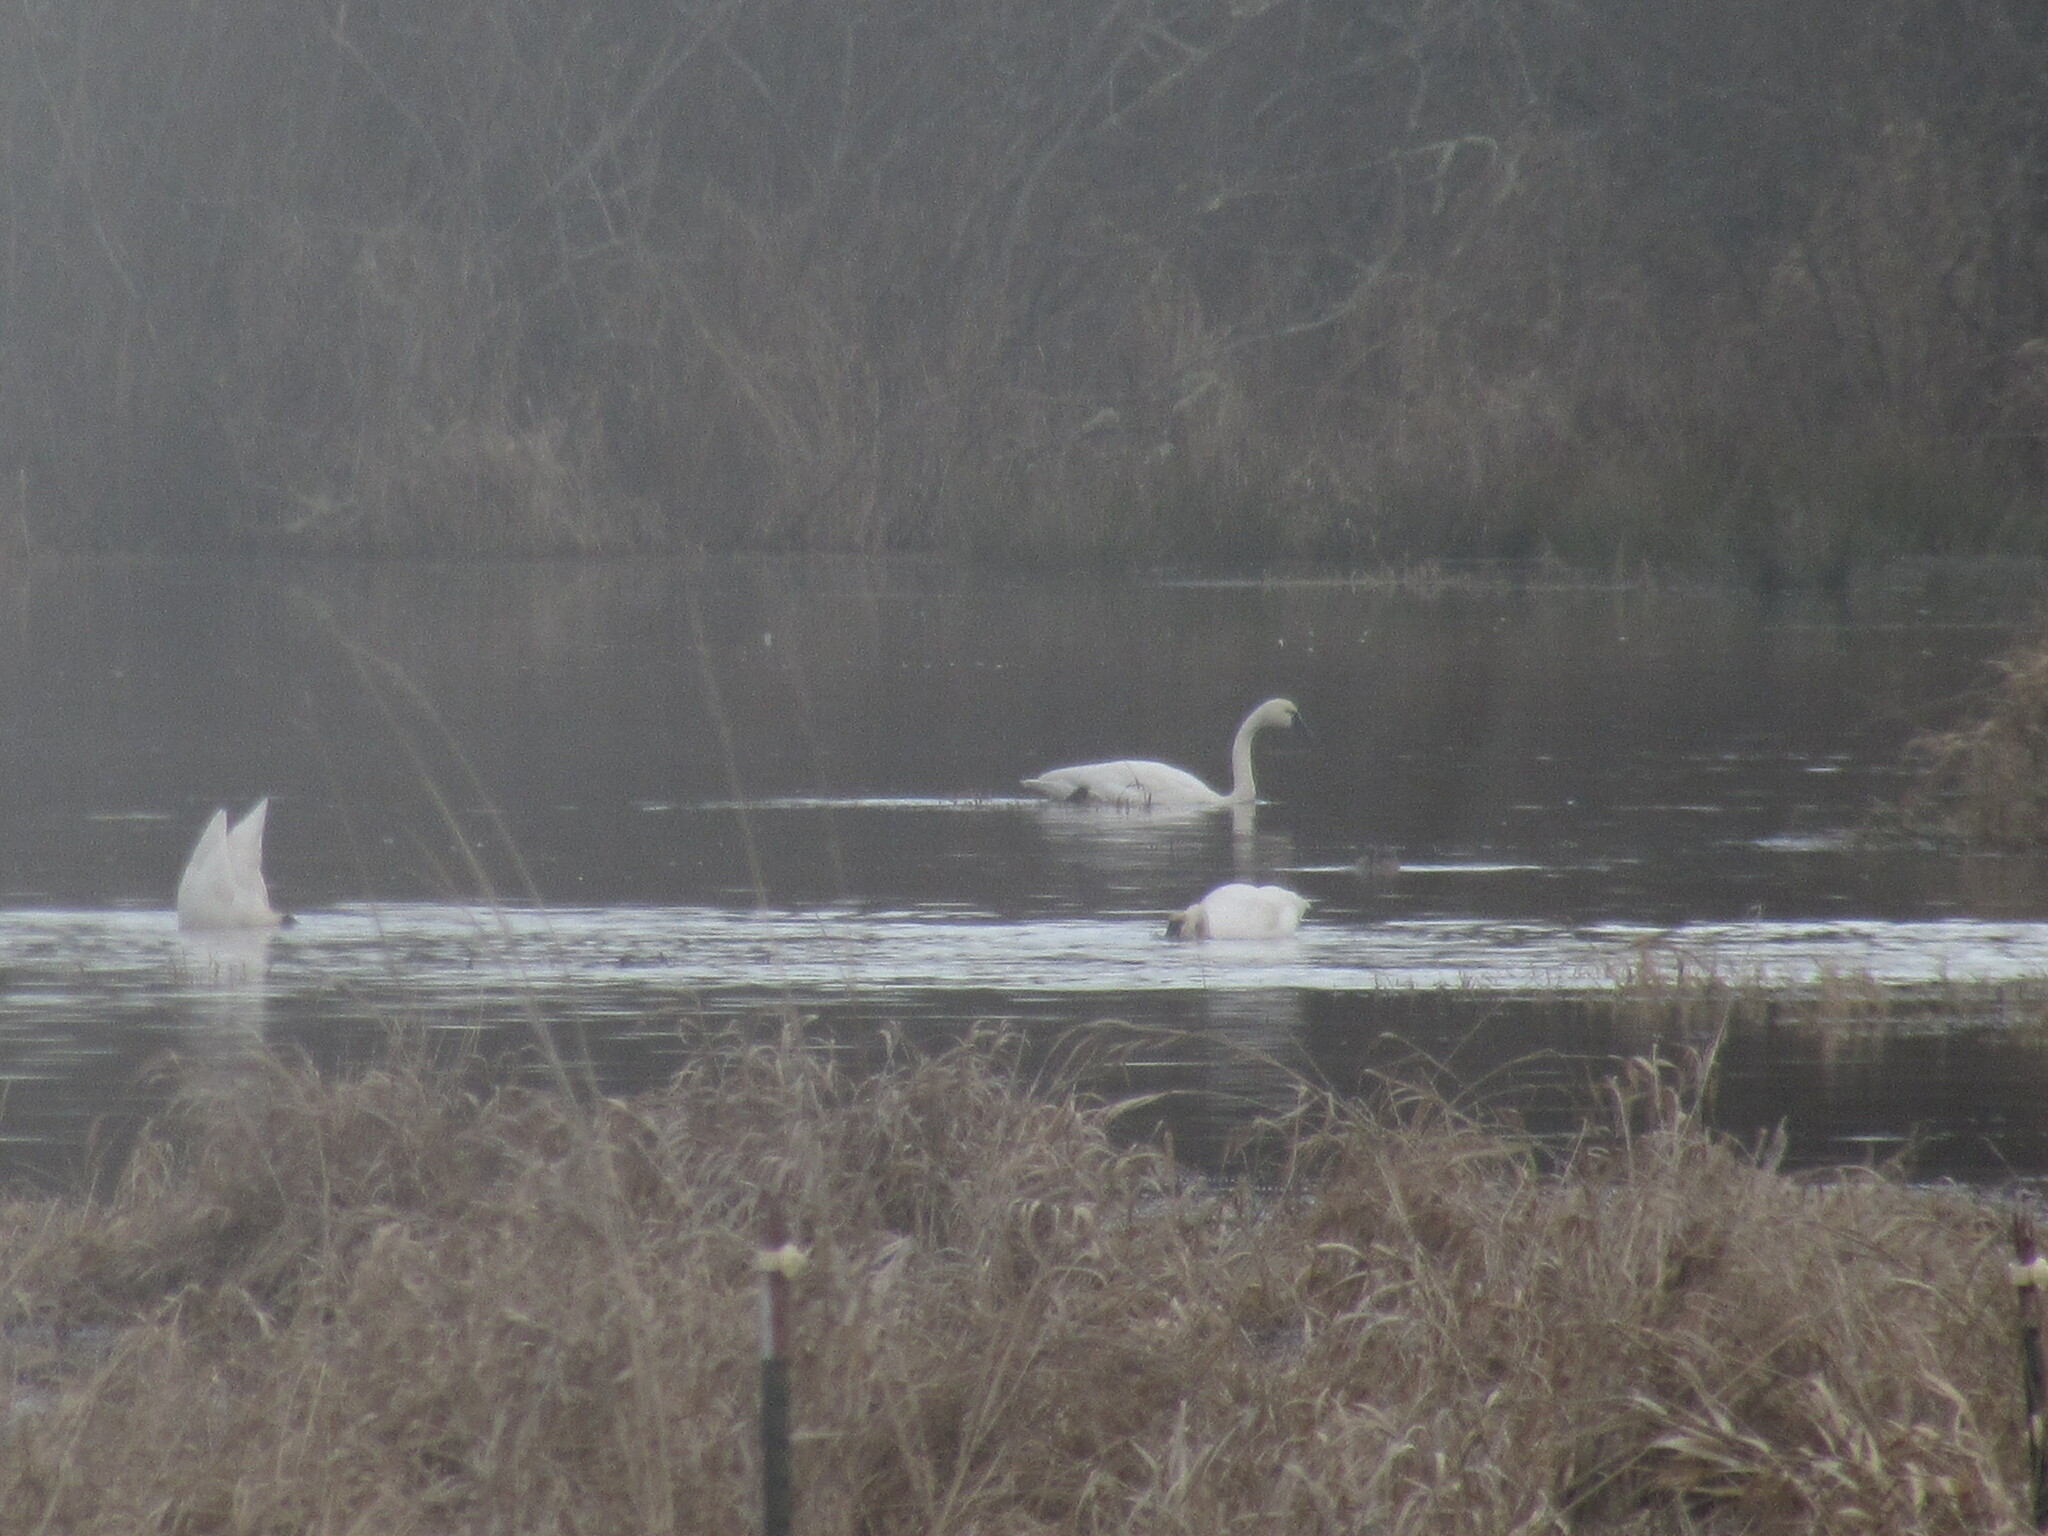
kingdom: Animalia
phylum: Chordata
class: Aves
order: Anseriformes
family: Anatidae
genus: Cygnus
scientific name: Cygnus columbianus
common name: Tundra swan
